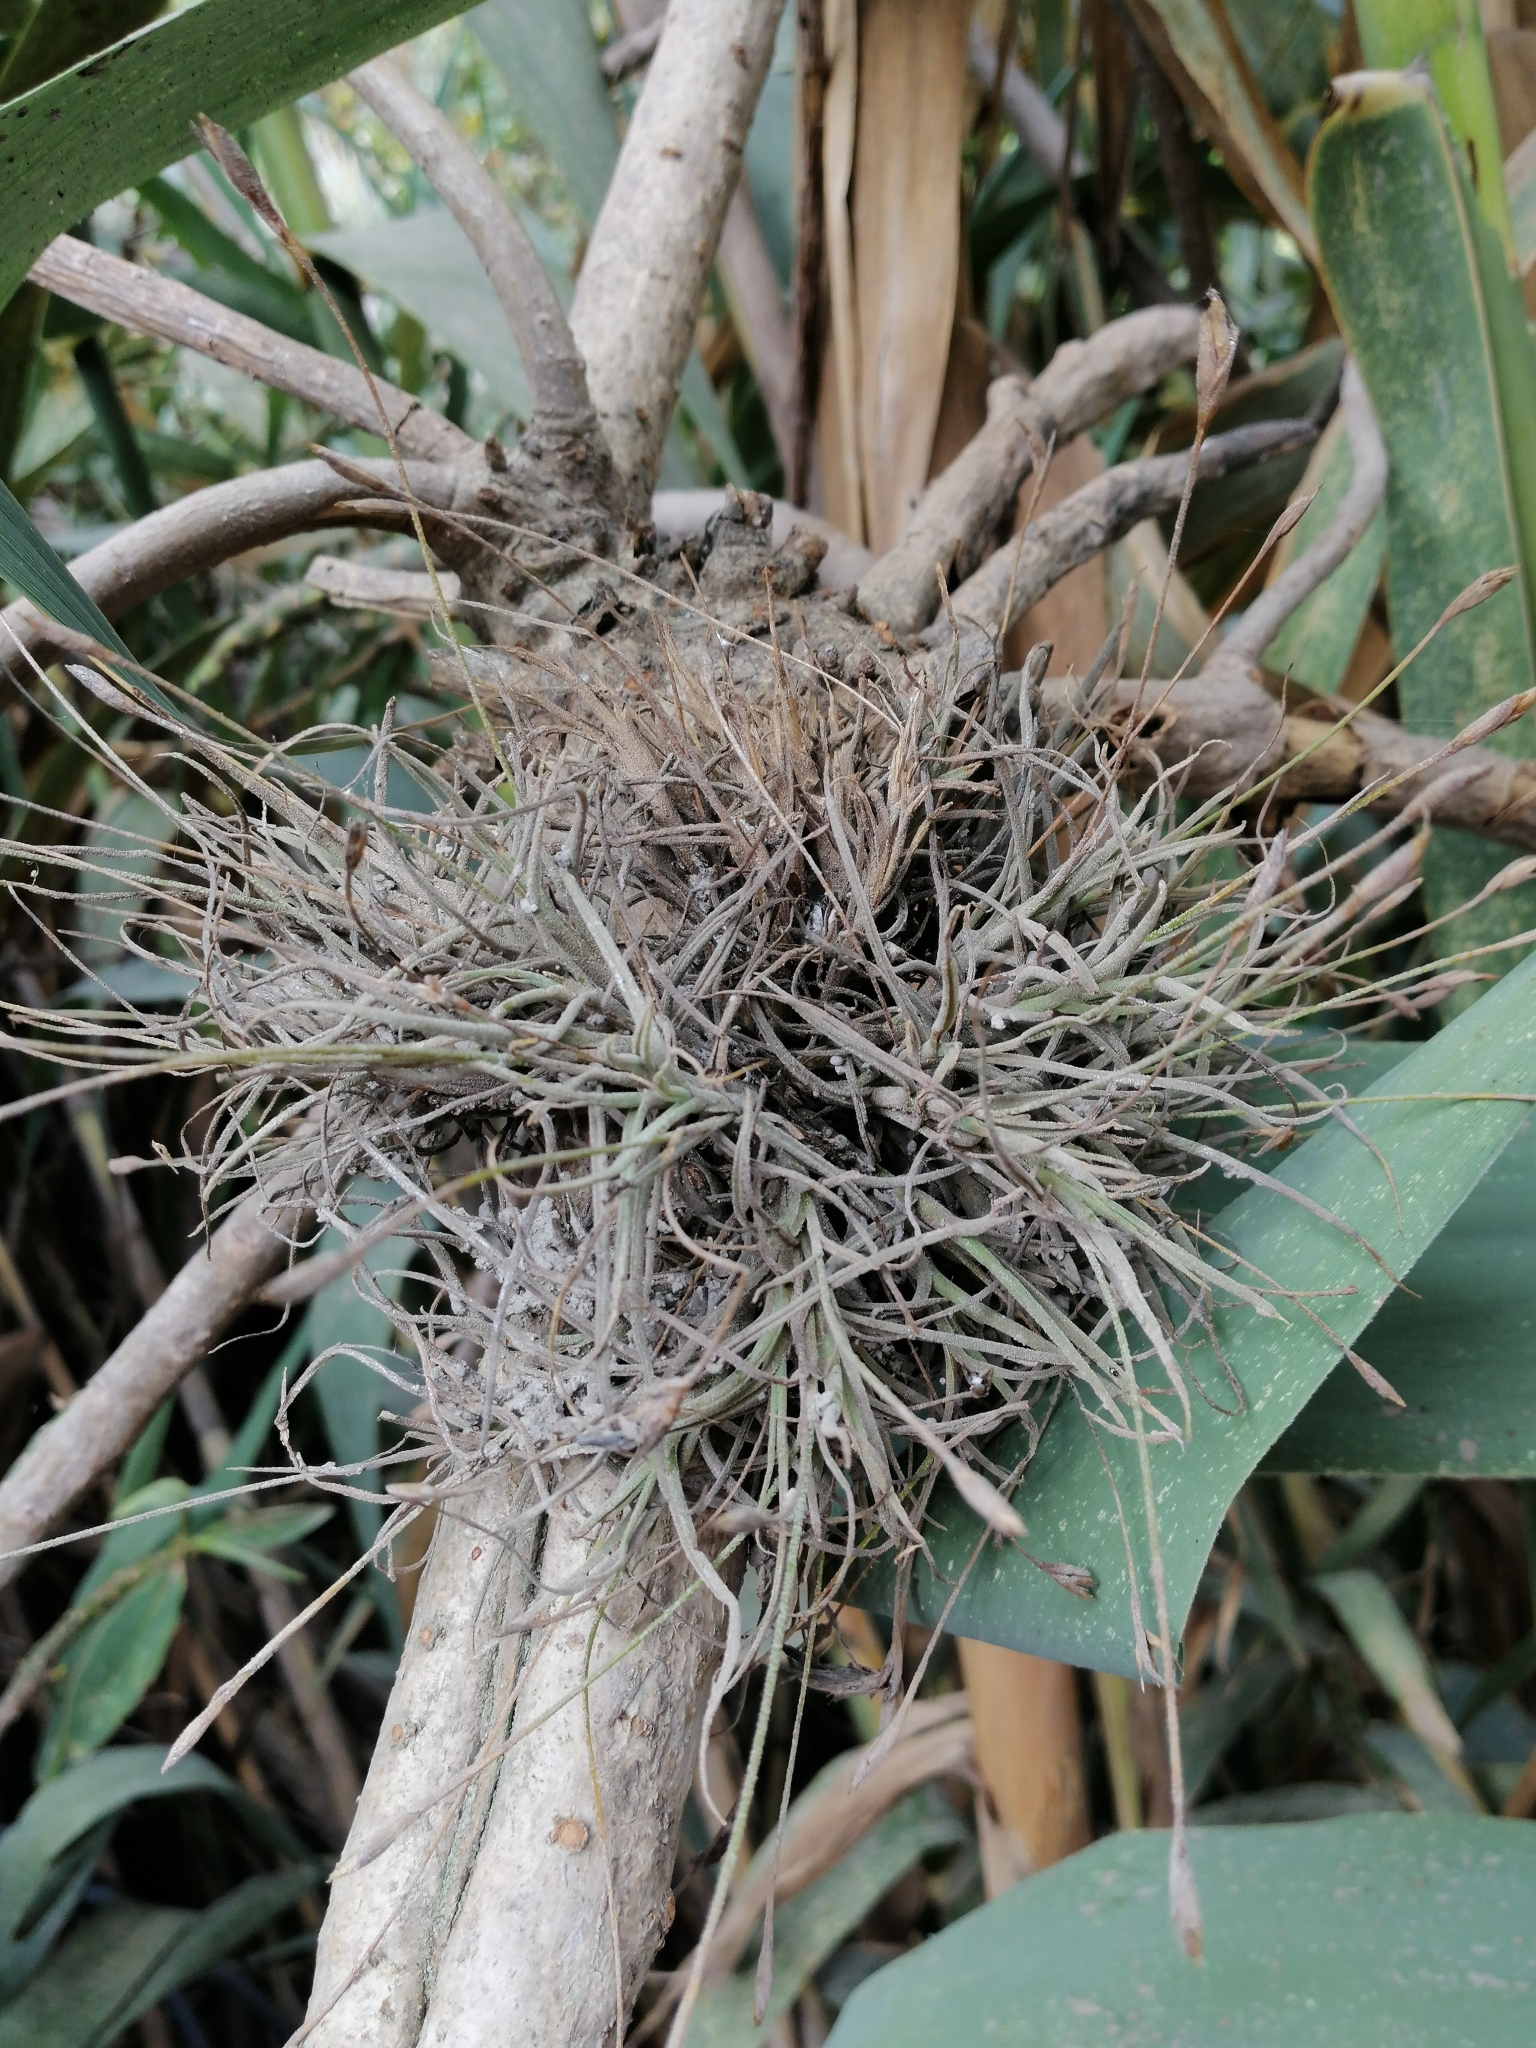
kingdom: Plantae
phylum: Tracheophyta
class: Liliopsida
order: Poales
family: Bromeliaceae
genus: Tillandsia
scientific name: Tillandsia recurvata
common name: Small ballmoss
